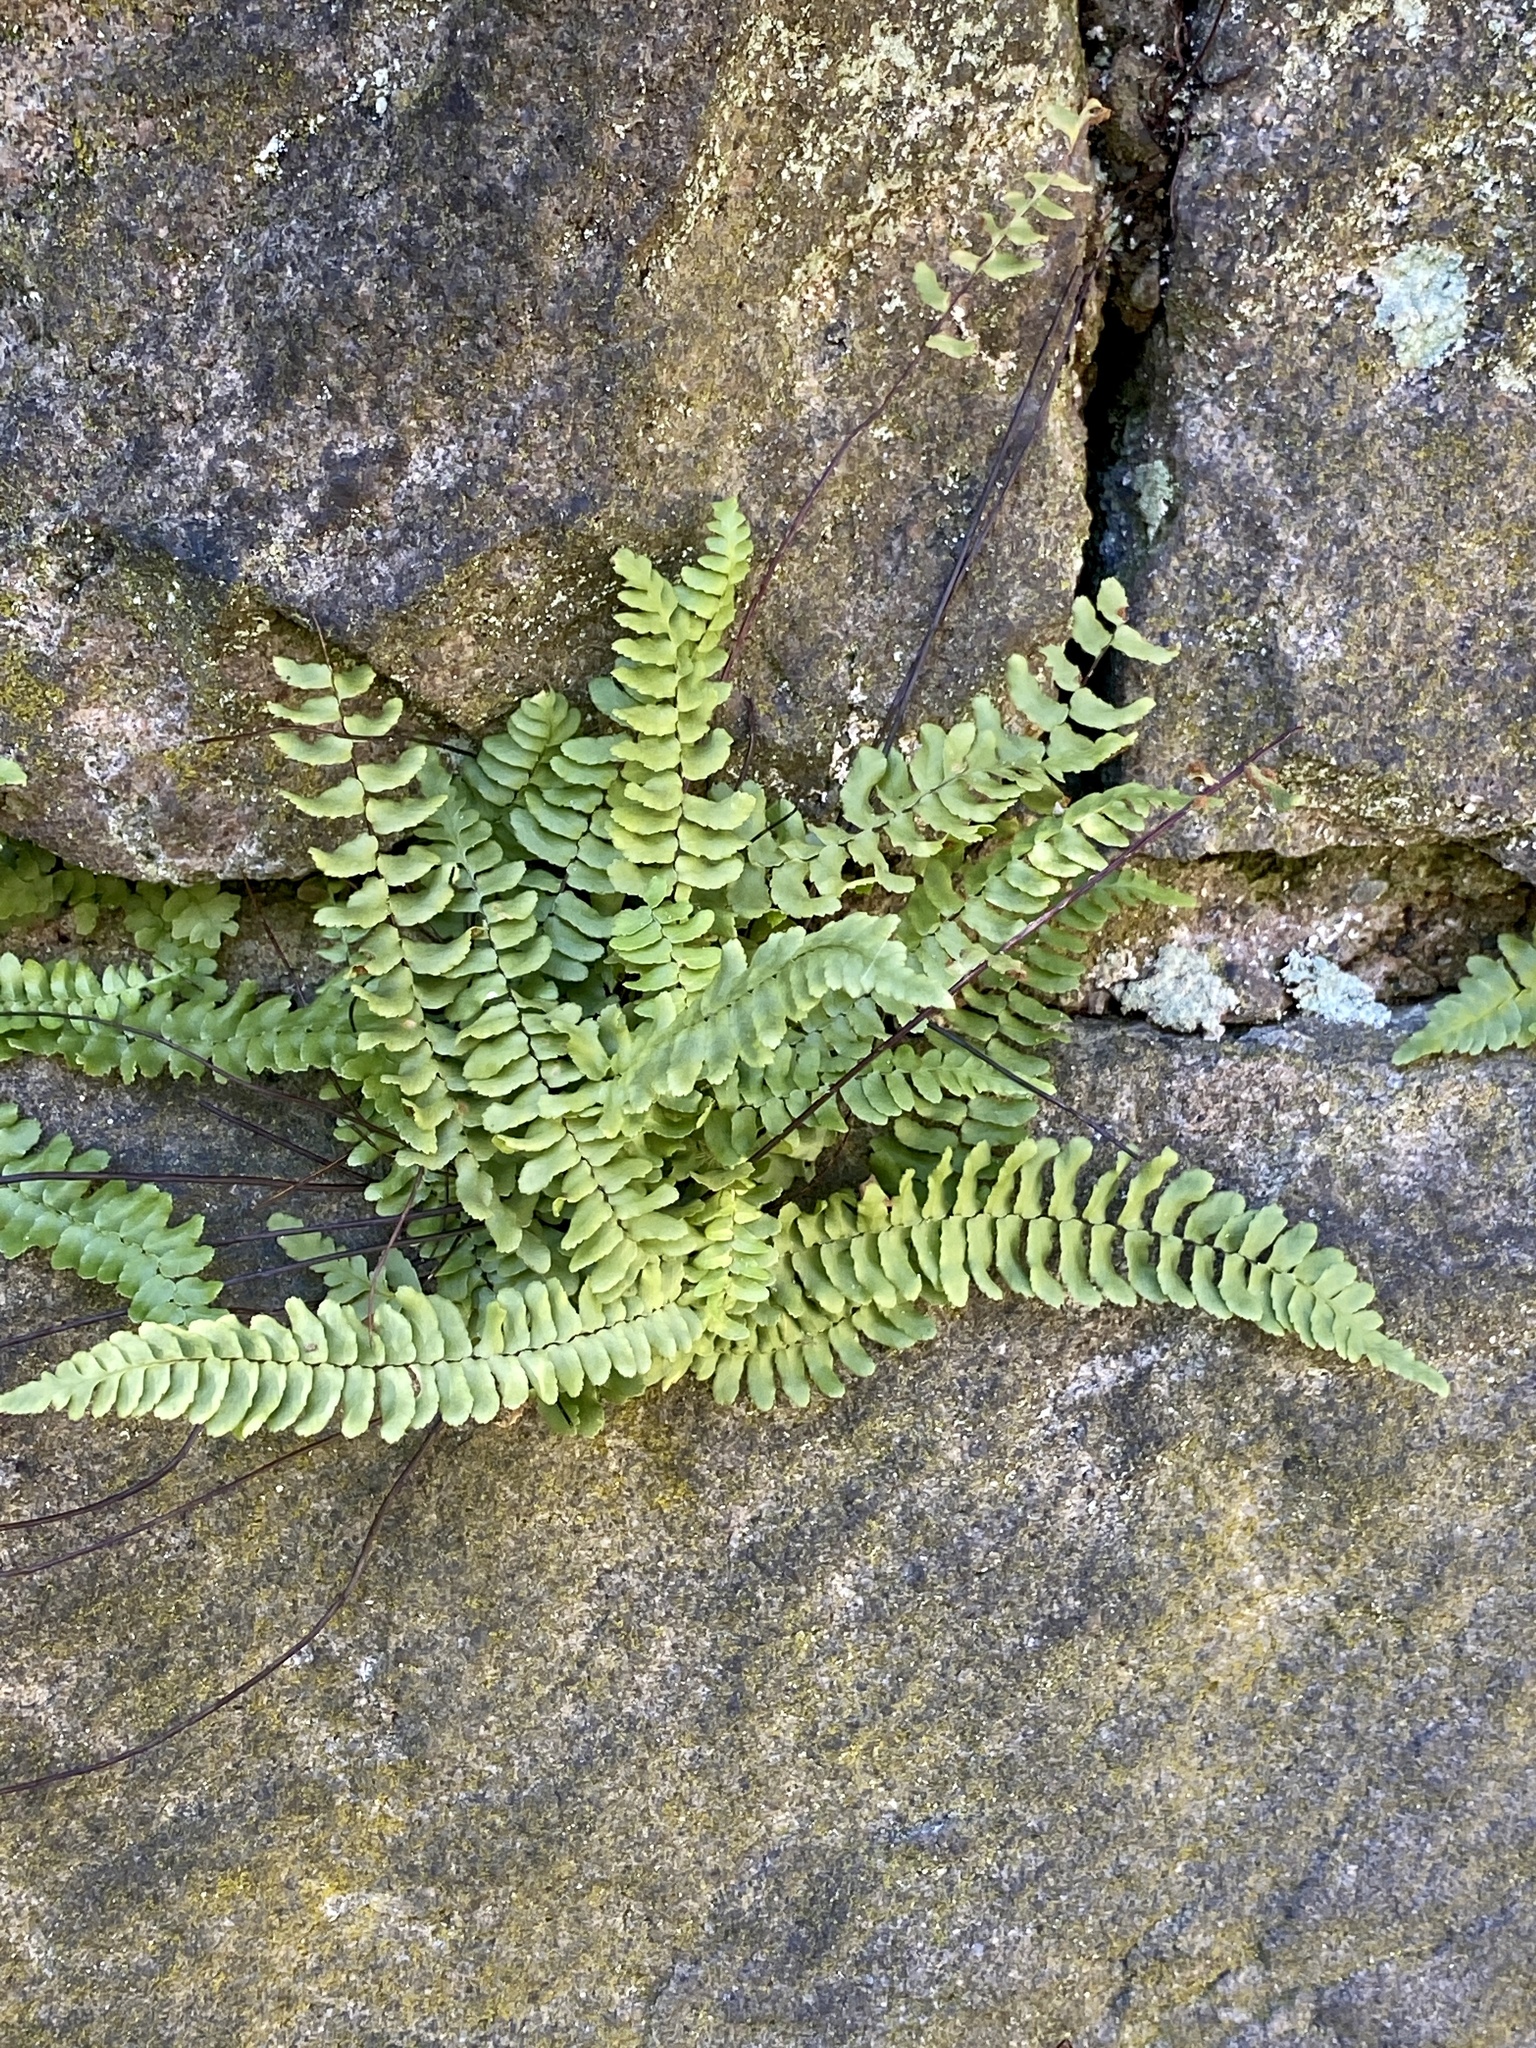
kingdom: Plantae
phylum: Tracheophyta
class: Polypodiopsida
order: Polypodiales
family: Aspleniaceae
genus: Asplenium
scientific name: Asplenium platyneuron
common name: Ebony spleenwort
